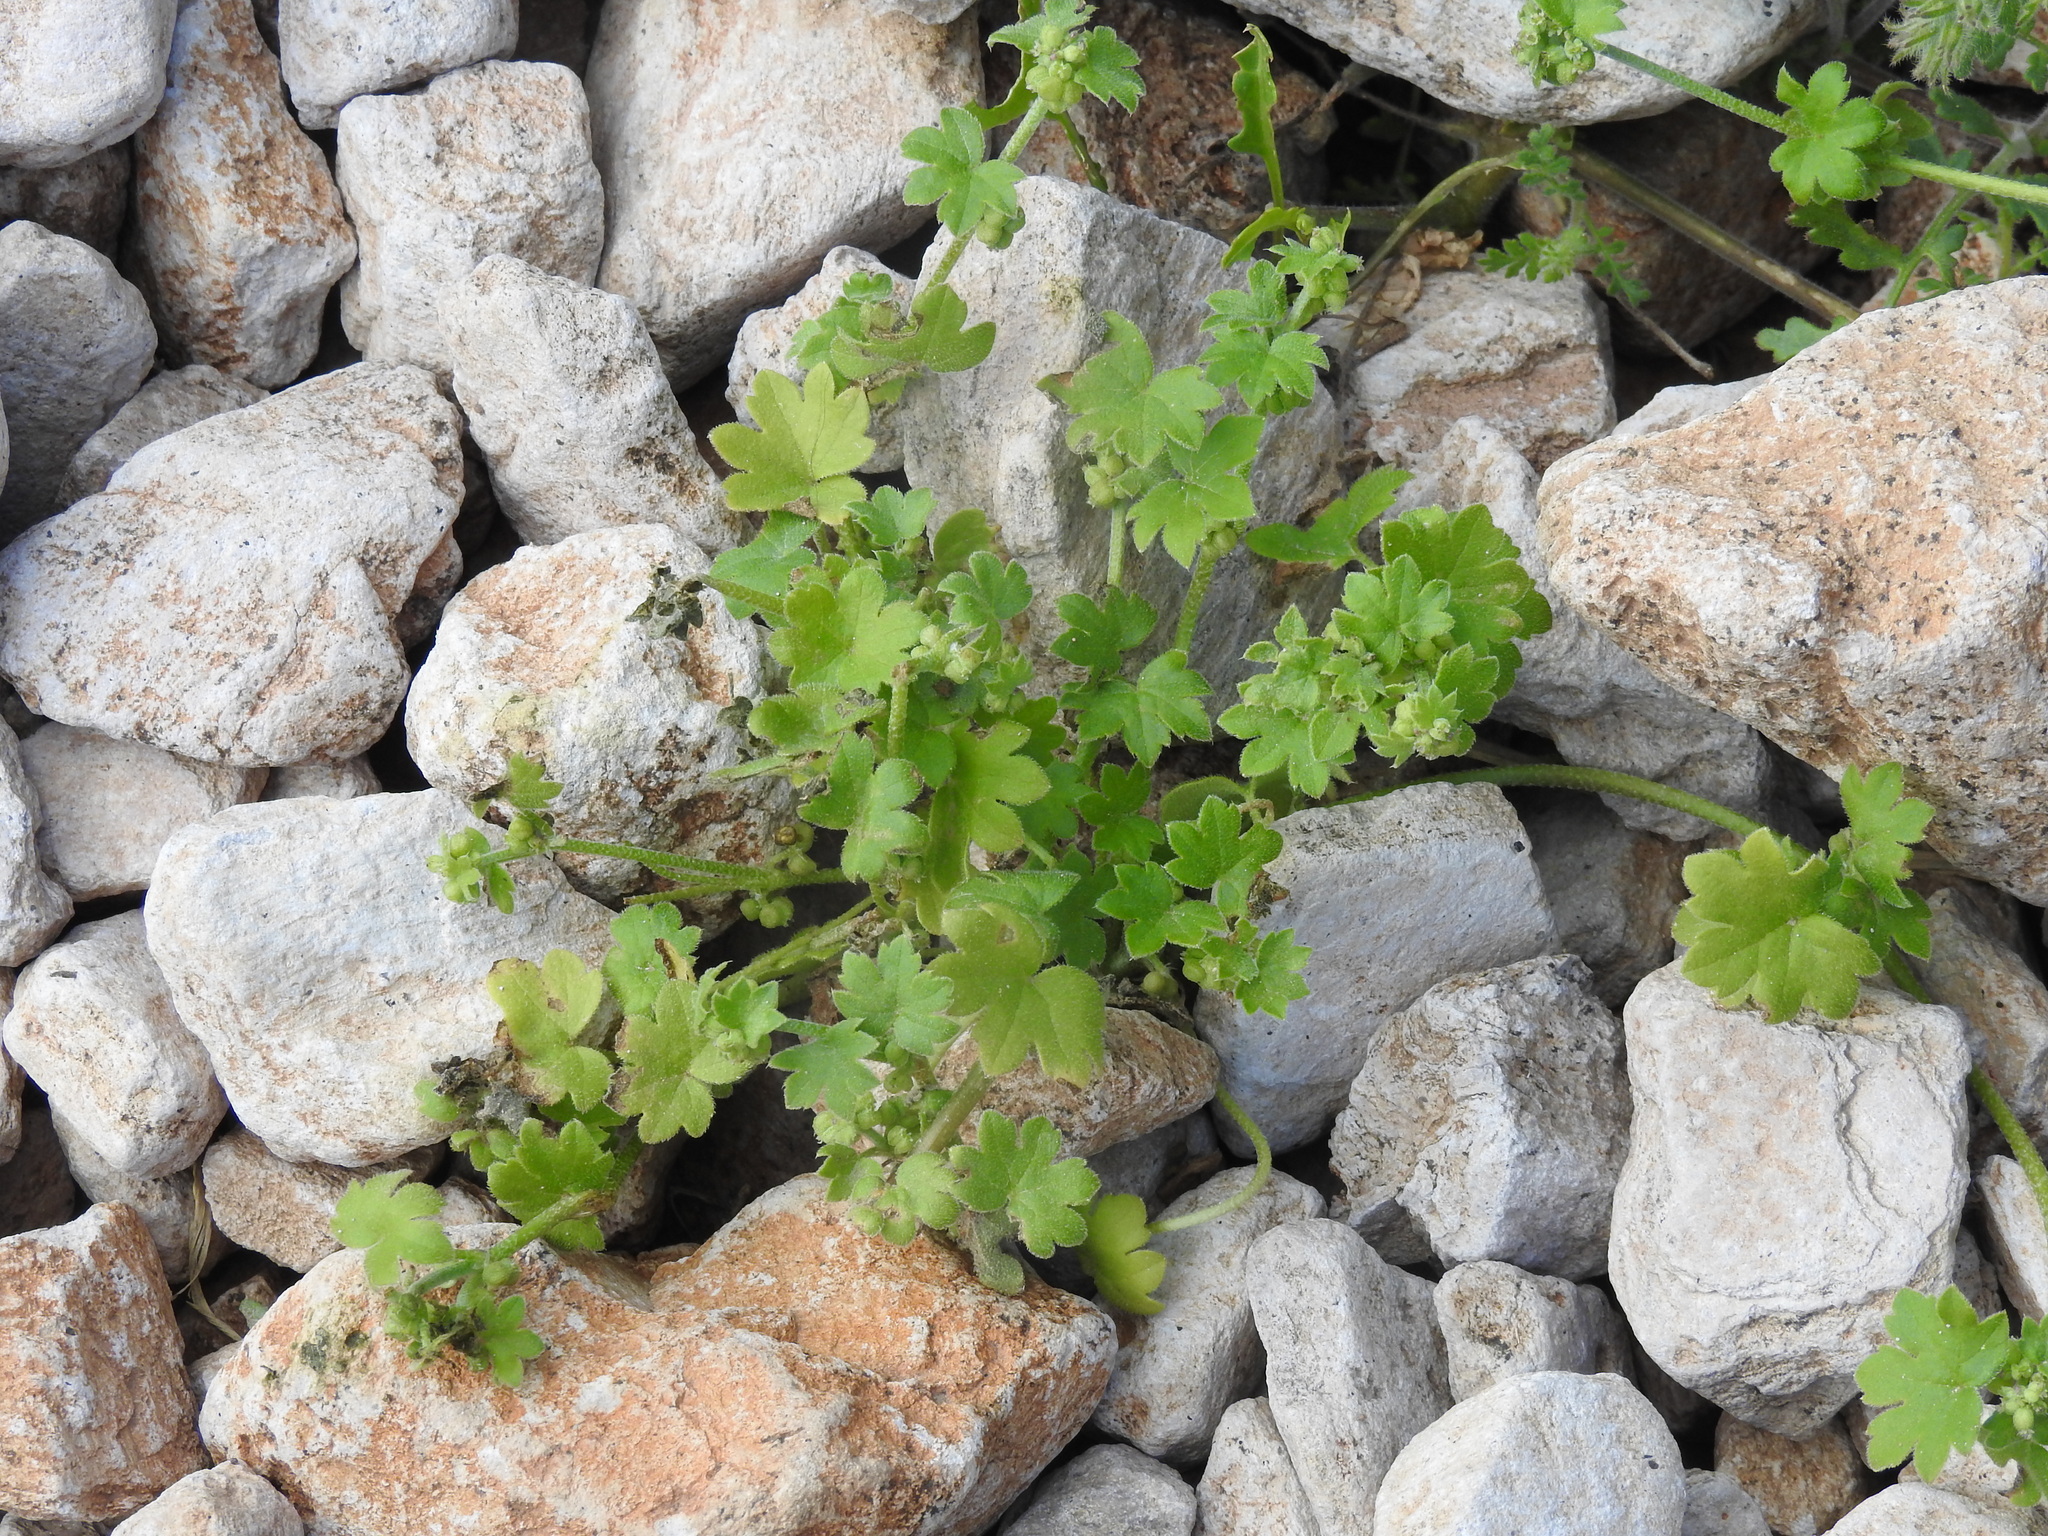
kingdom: Plantae
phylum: Tracheophyta
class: Magnoliopsida
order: Apiales
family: Apiaceae
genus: Bowlesia
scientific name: Bowlesia incana
